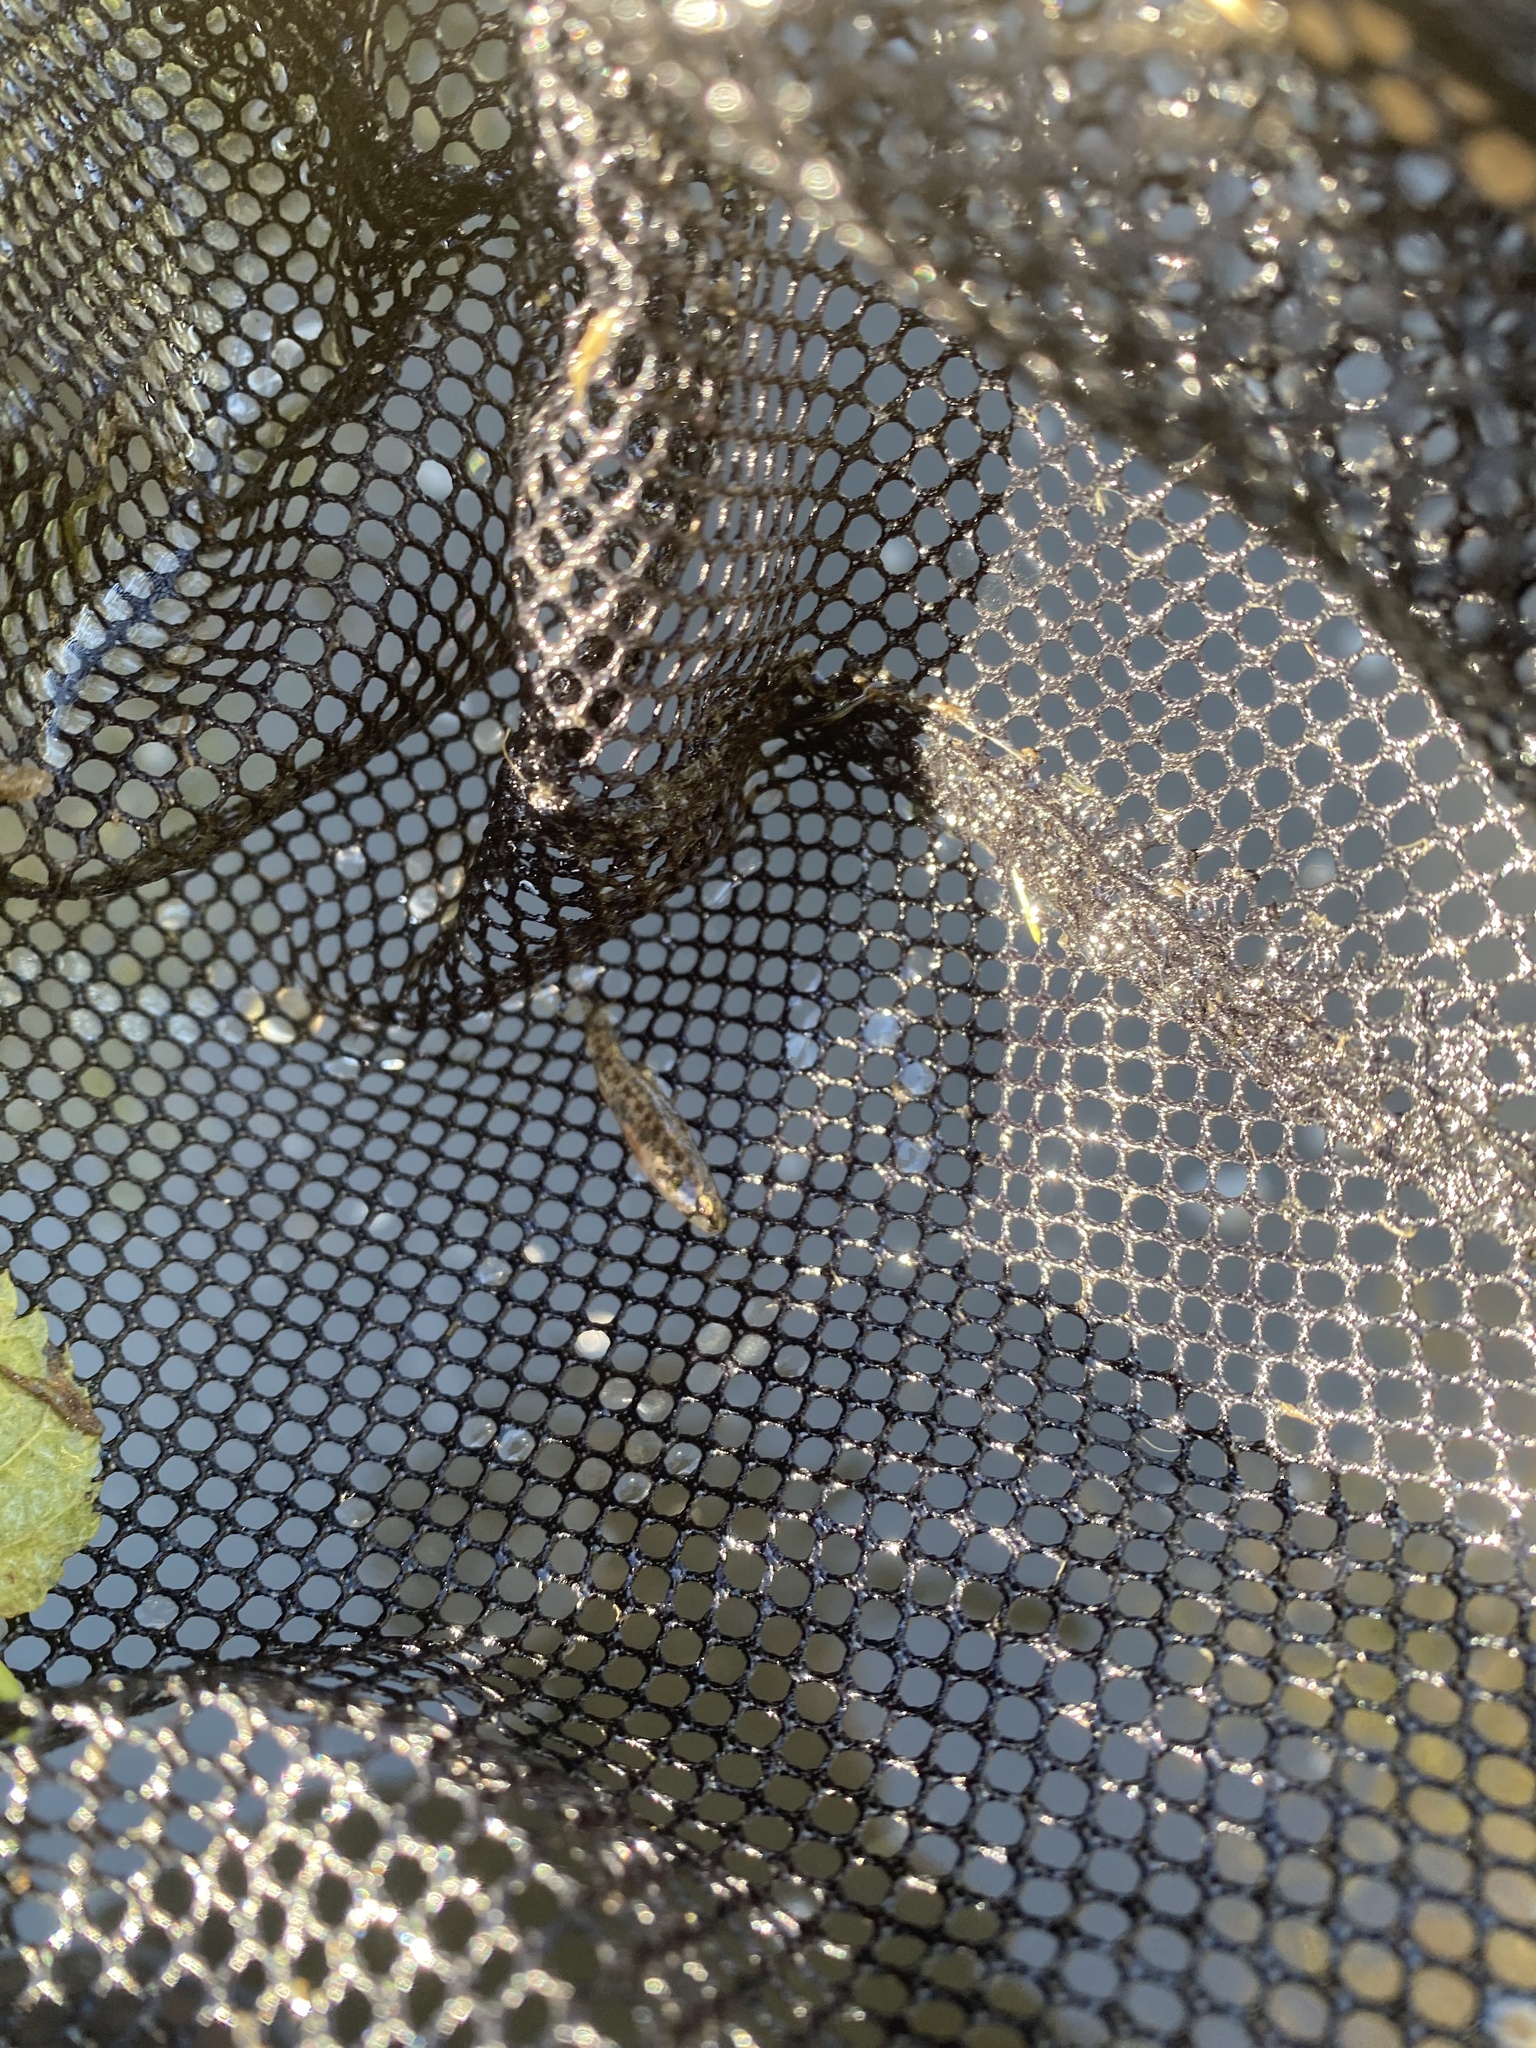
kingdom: Animalia
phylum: Chordata
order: Perciformes
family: Percidae
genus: Etheostoma
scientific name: Etheostoma microperca
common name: Least darter
